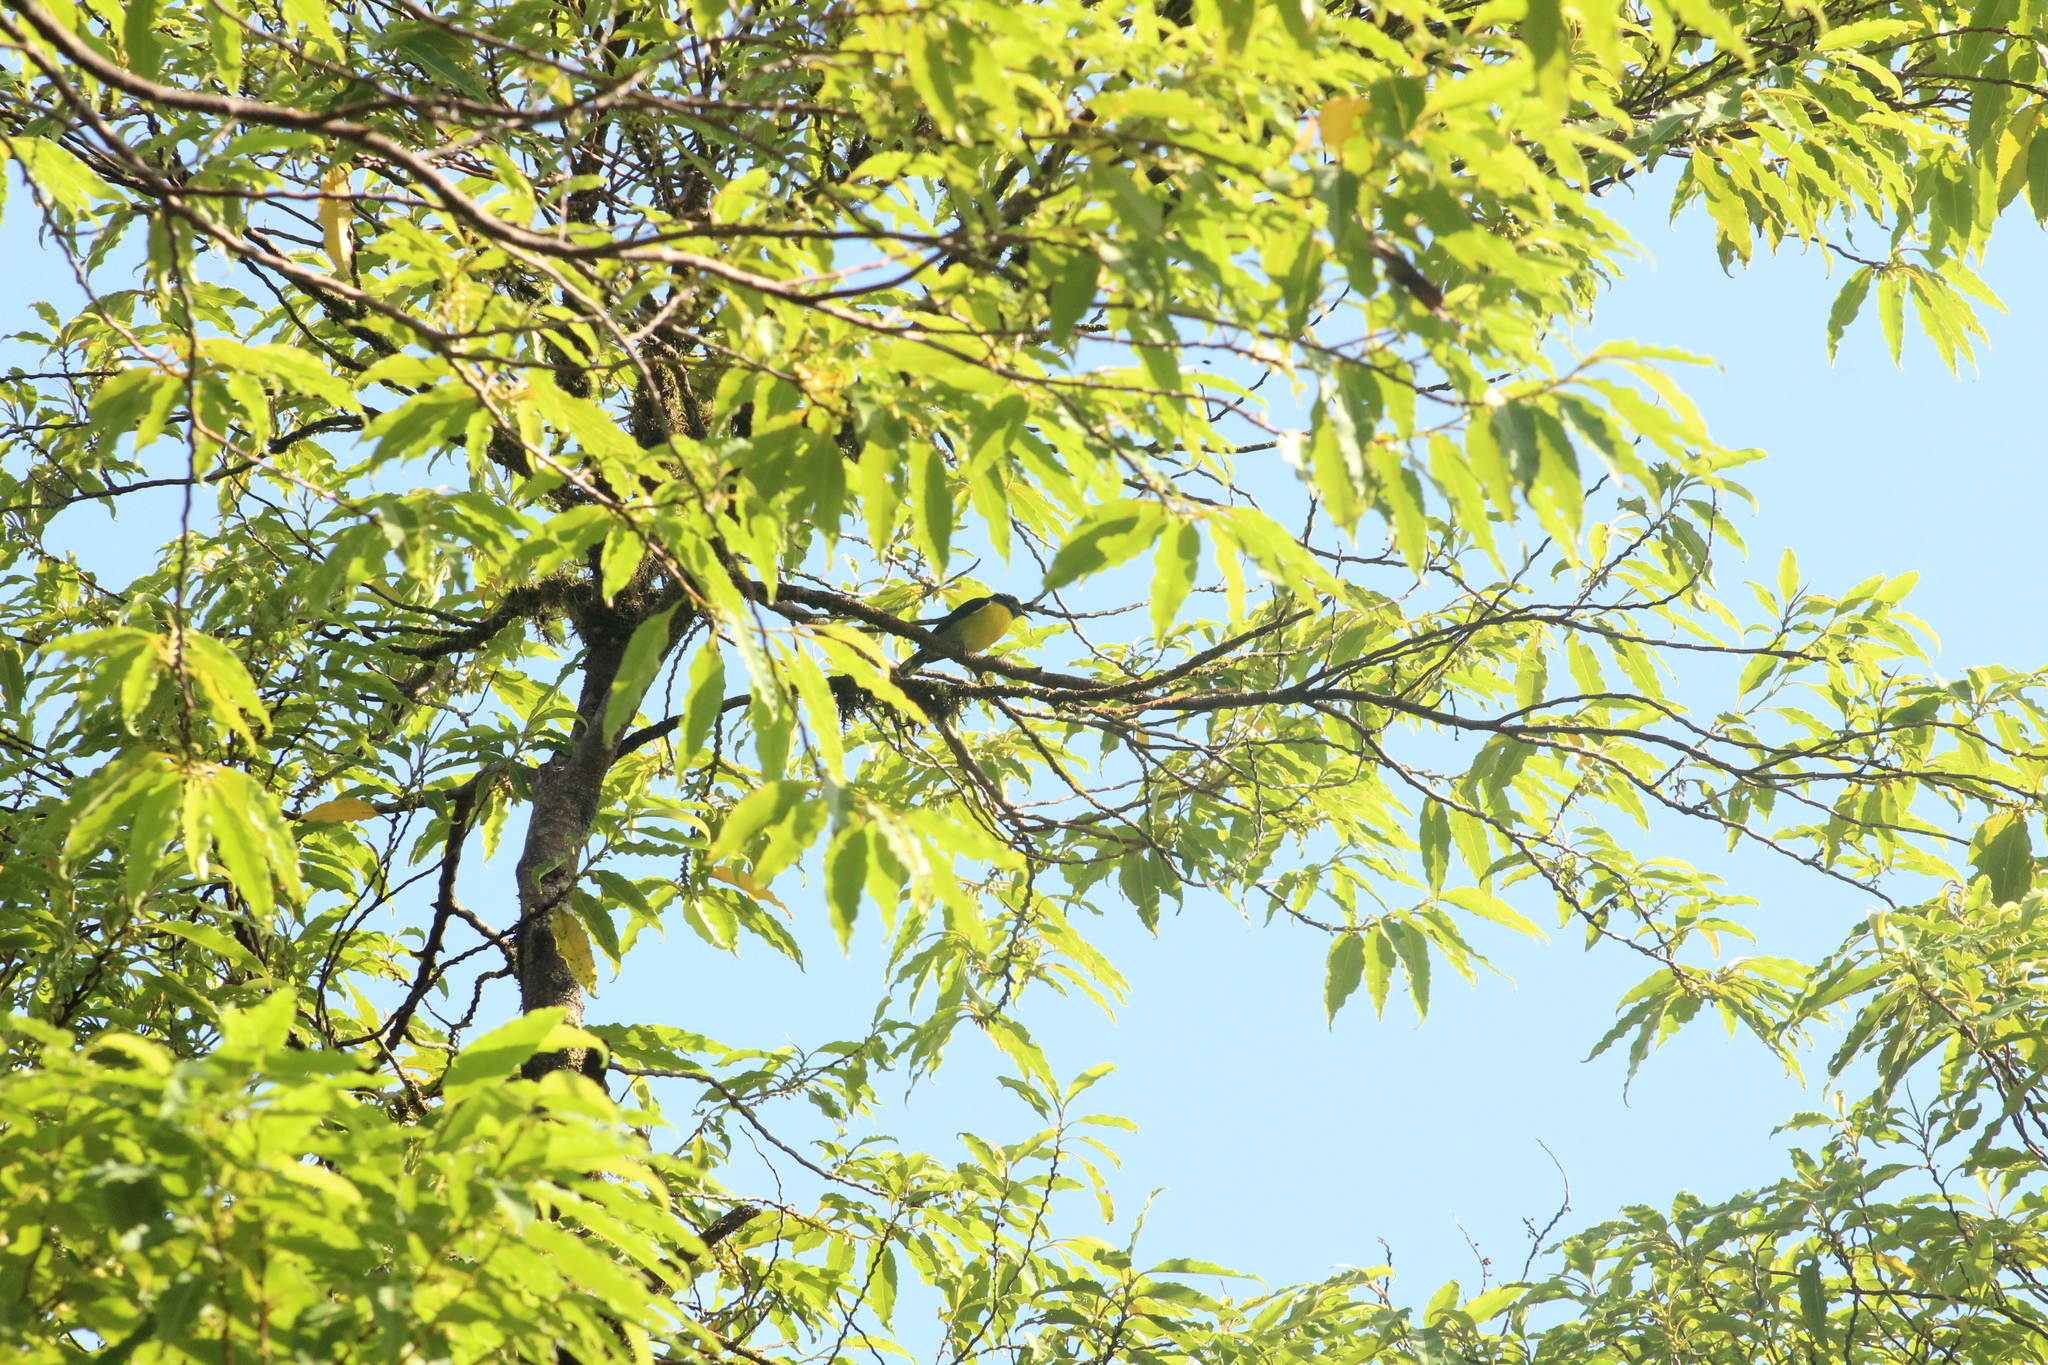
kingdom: Animalia
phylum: Chordata
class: Aves
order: Passeriformes
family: Thraupidae
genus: Coereba
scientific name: Coereba flaveola
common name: Bananaquit
